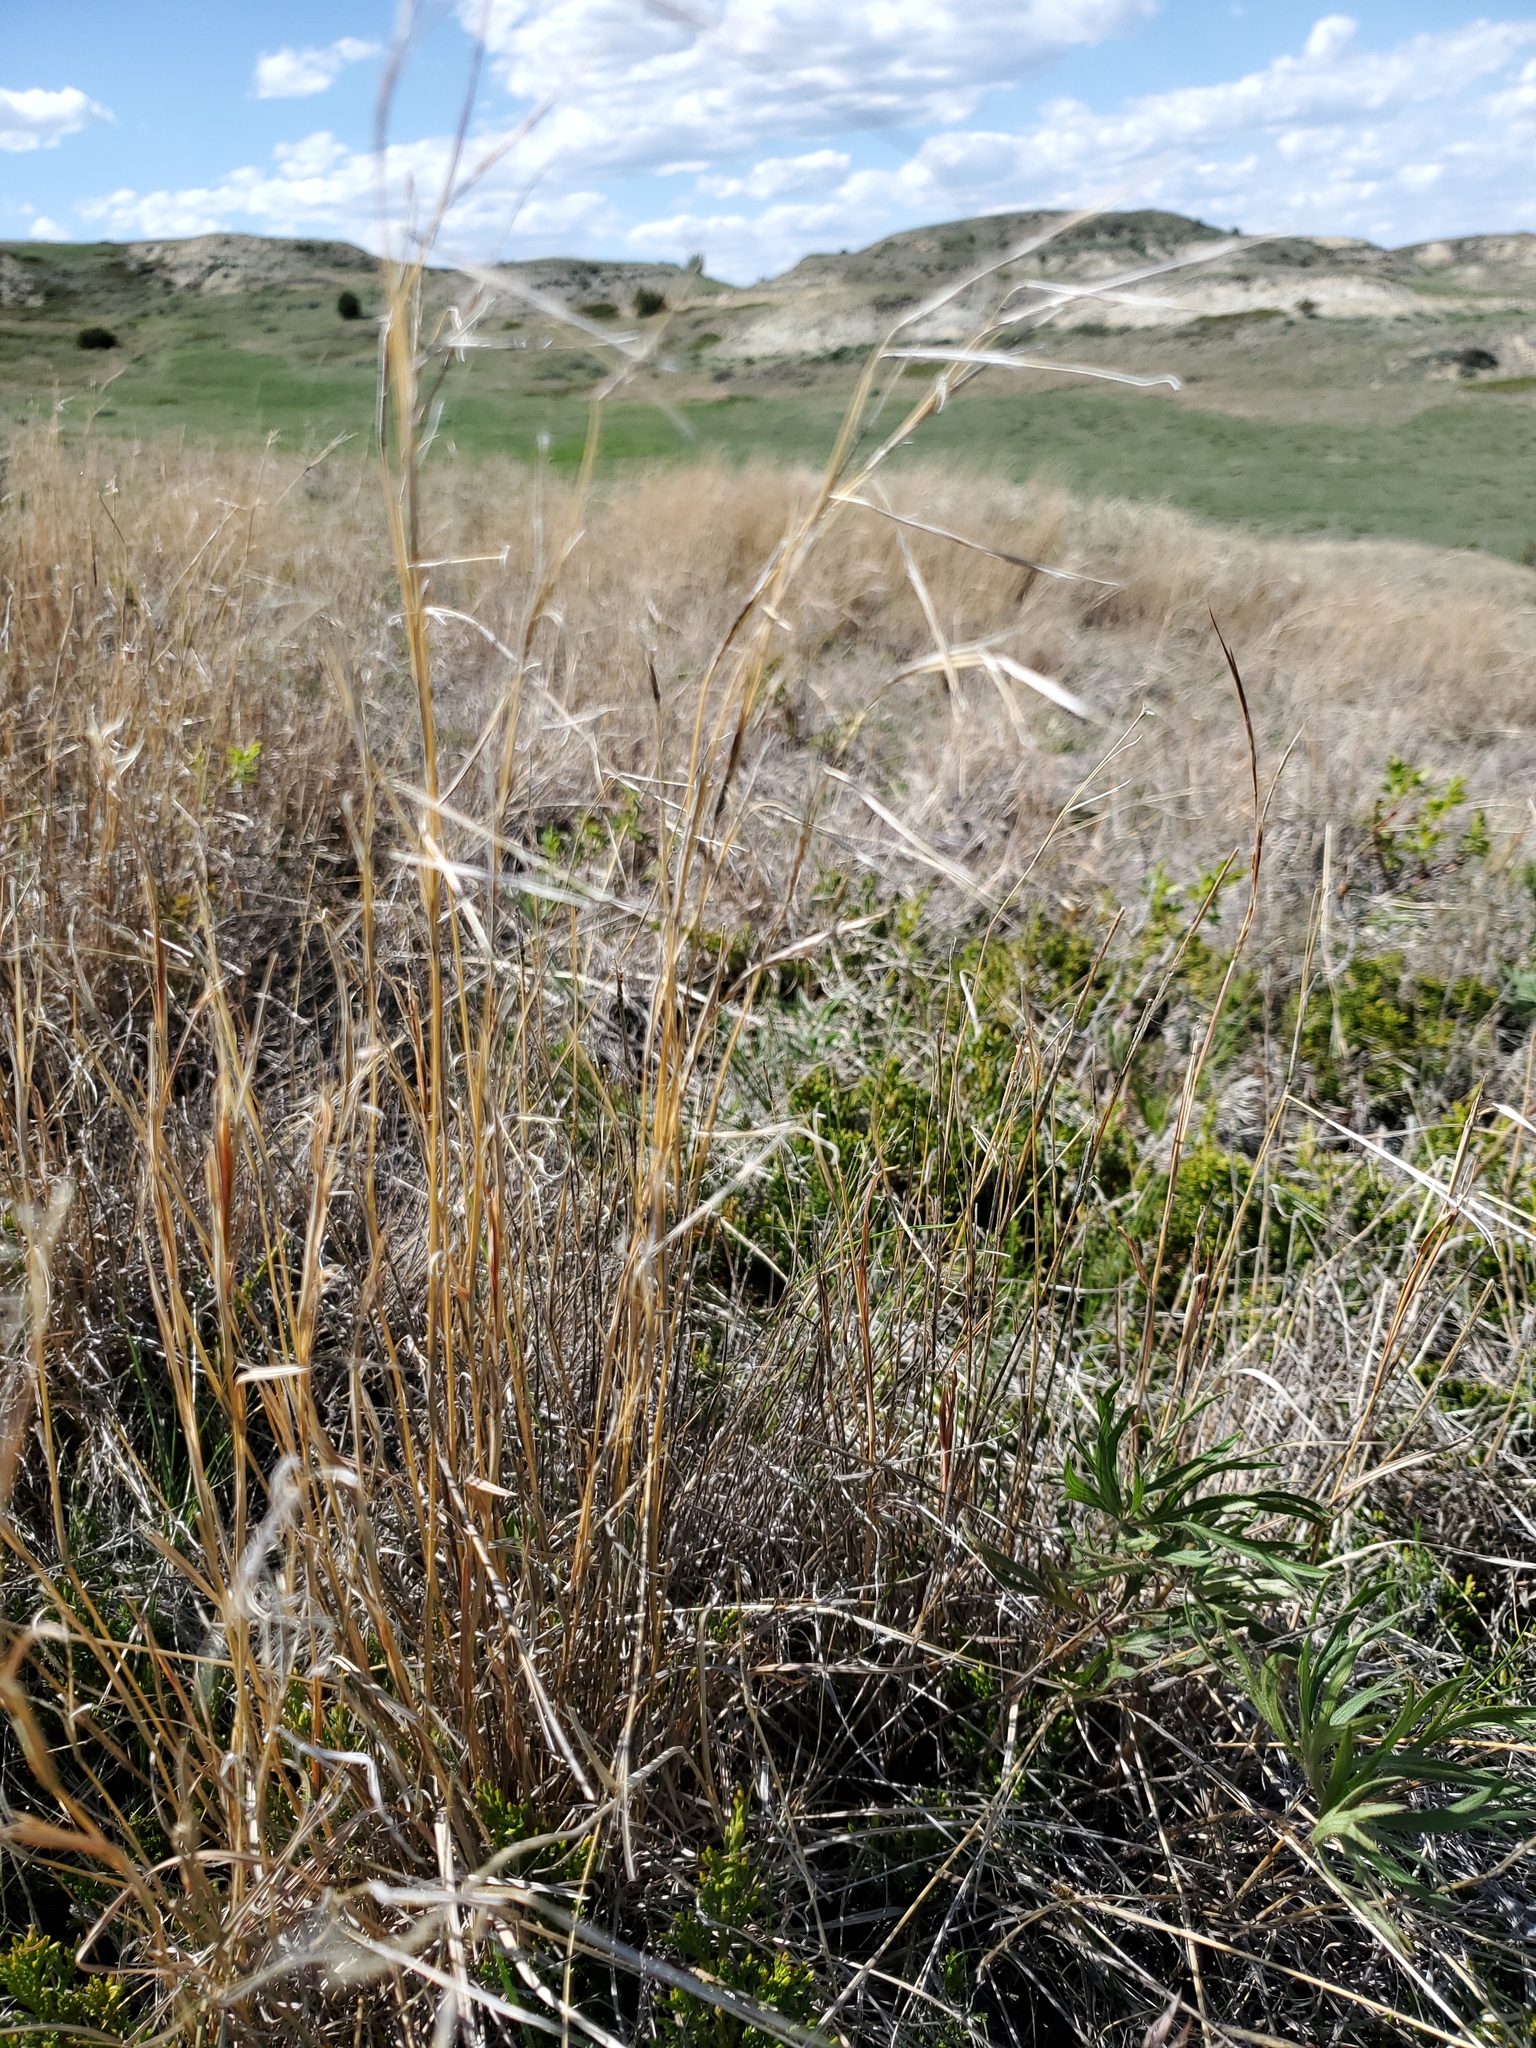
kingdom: Plantae
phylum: Tracheophyta
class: Liliopsida
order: Poales
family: Poaceae
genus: Schizachyrium
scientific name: Schizachyrium scoparium
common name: Little bluestem
